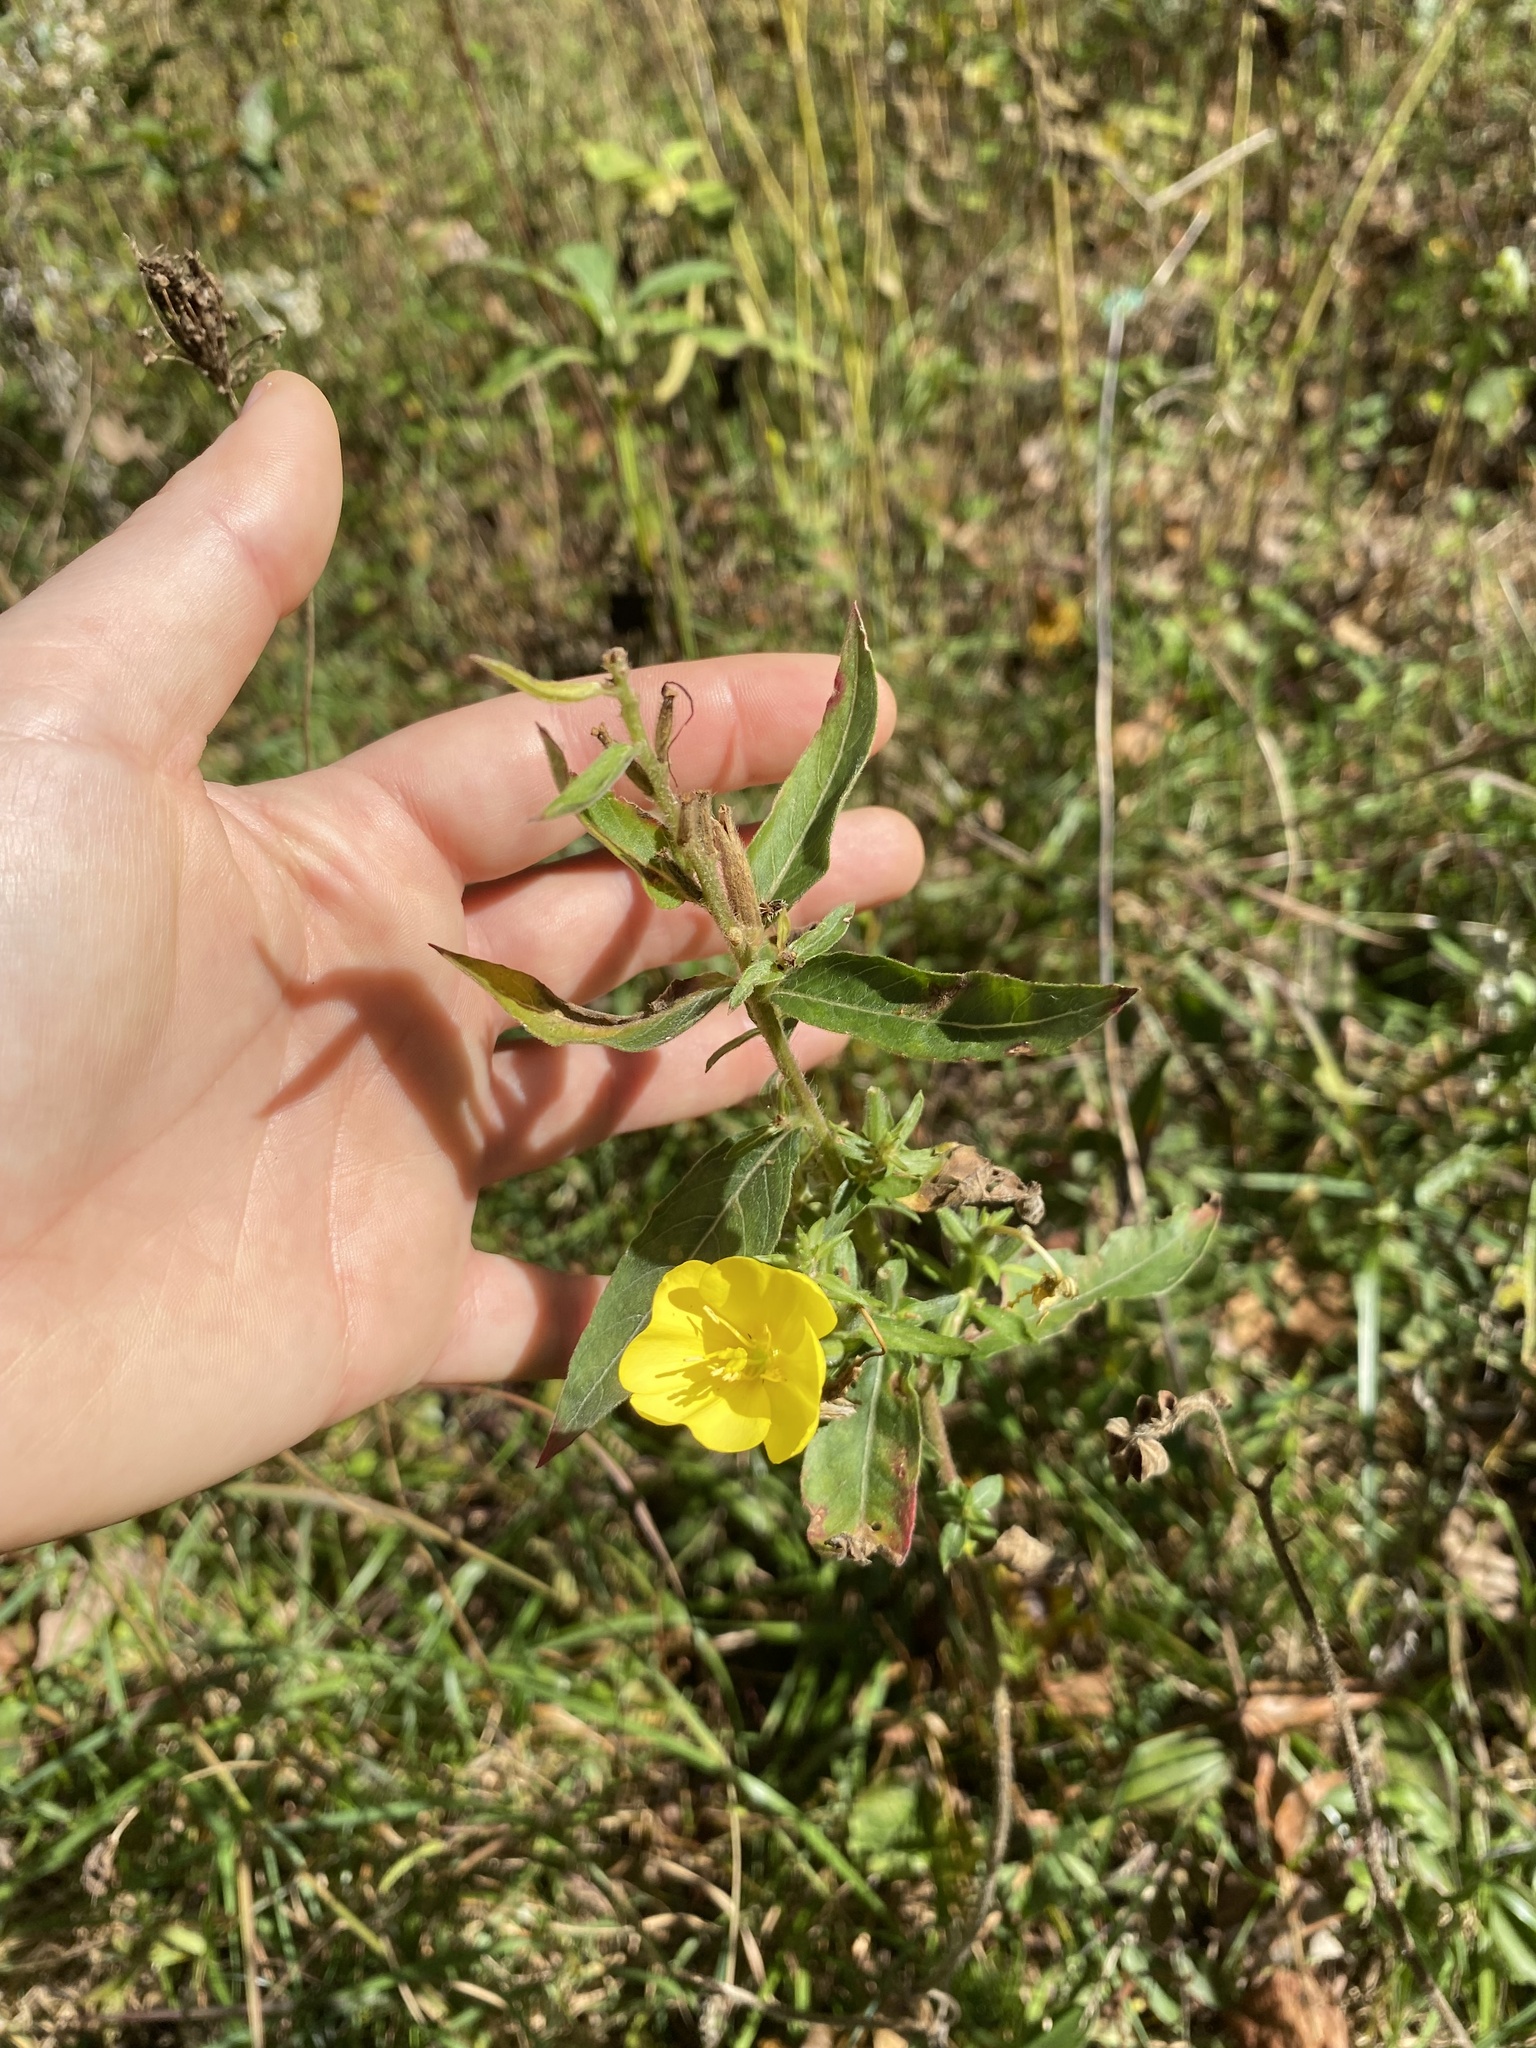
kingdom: Plantae
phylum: Tracheophyta
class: Magnoliopsida
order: Myrtales
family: Onagraceae
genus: Oenothera
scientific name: Oenothera biennis
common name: Common evening-primrose
